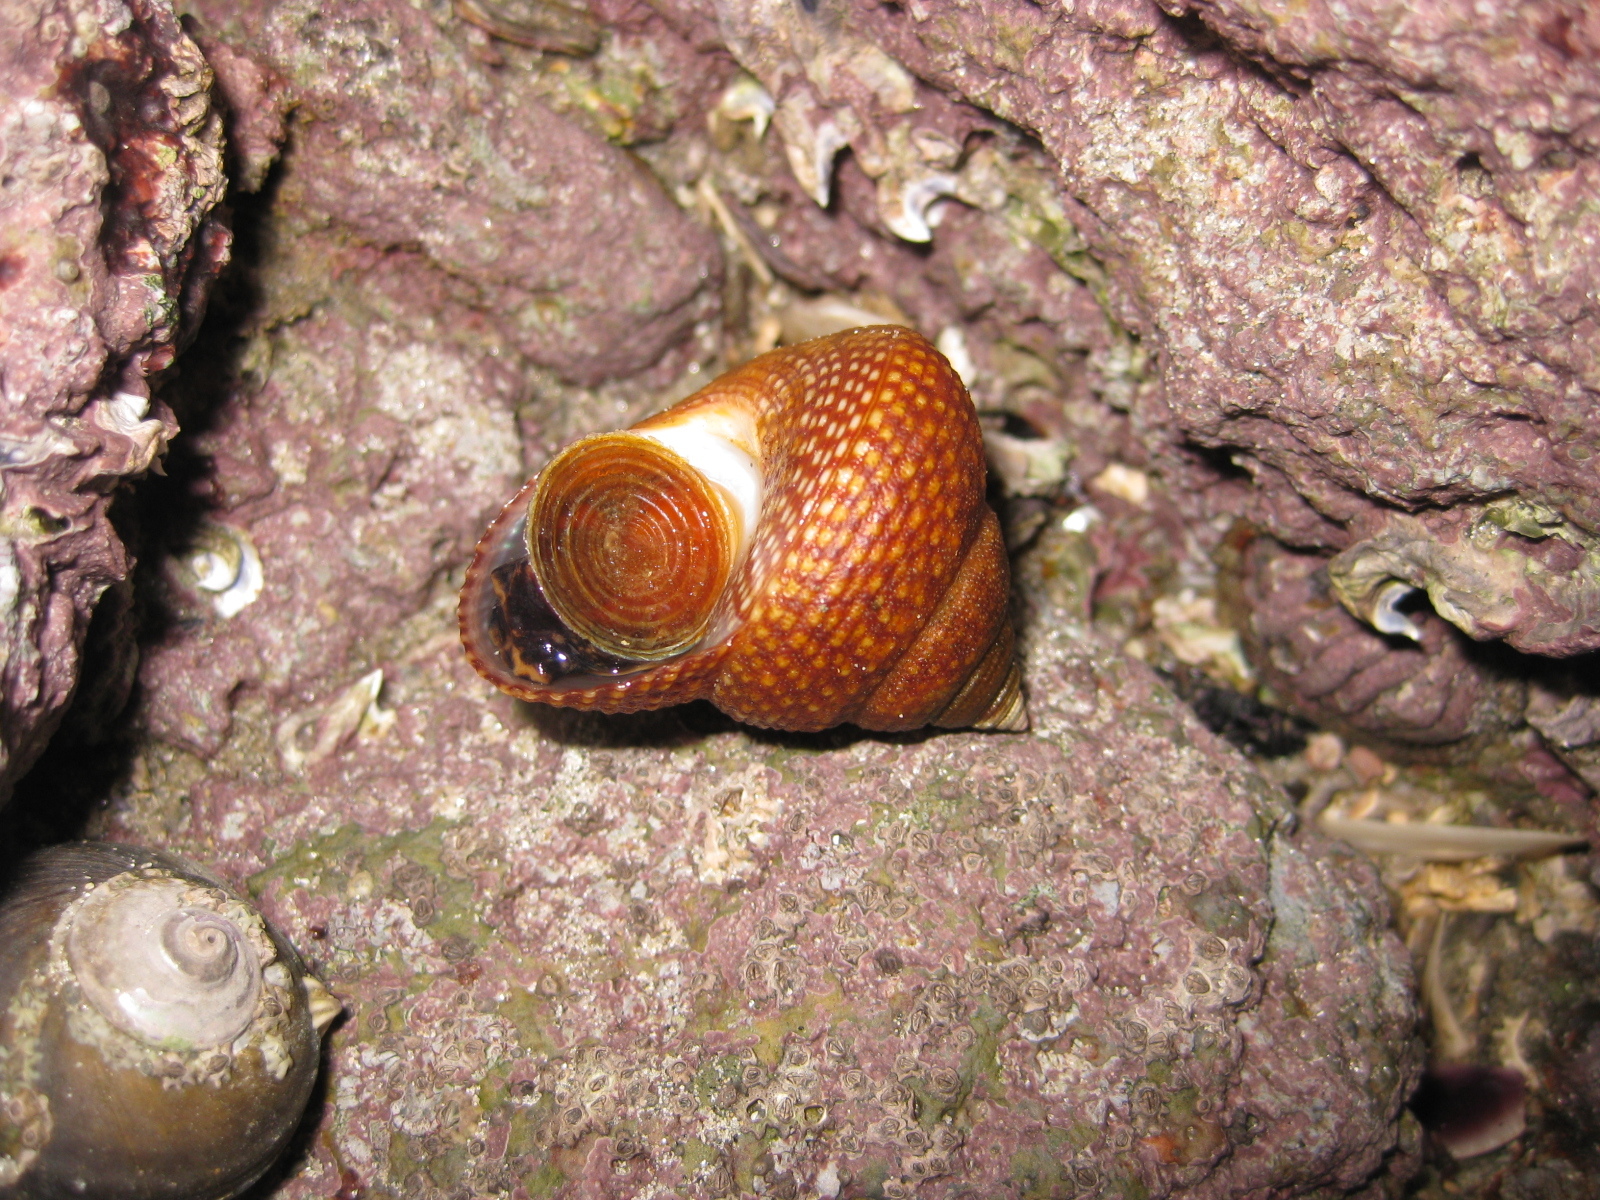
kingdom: Animalia
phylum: Mollusca
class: Gastropoda
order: Trochida
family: Calliostomatidae
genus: Maurea
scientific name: Maurea punctulata
